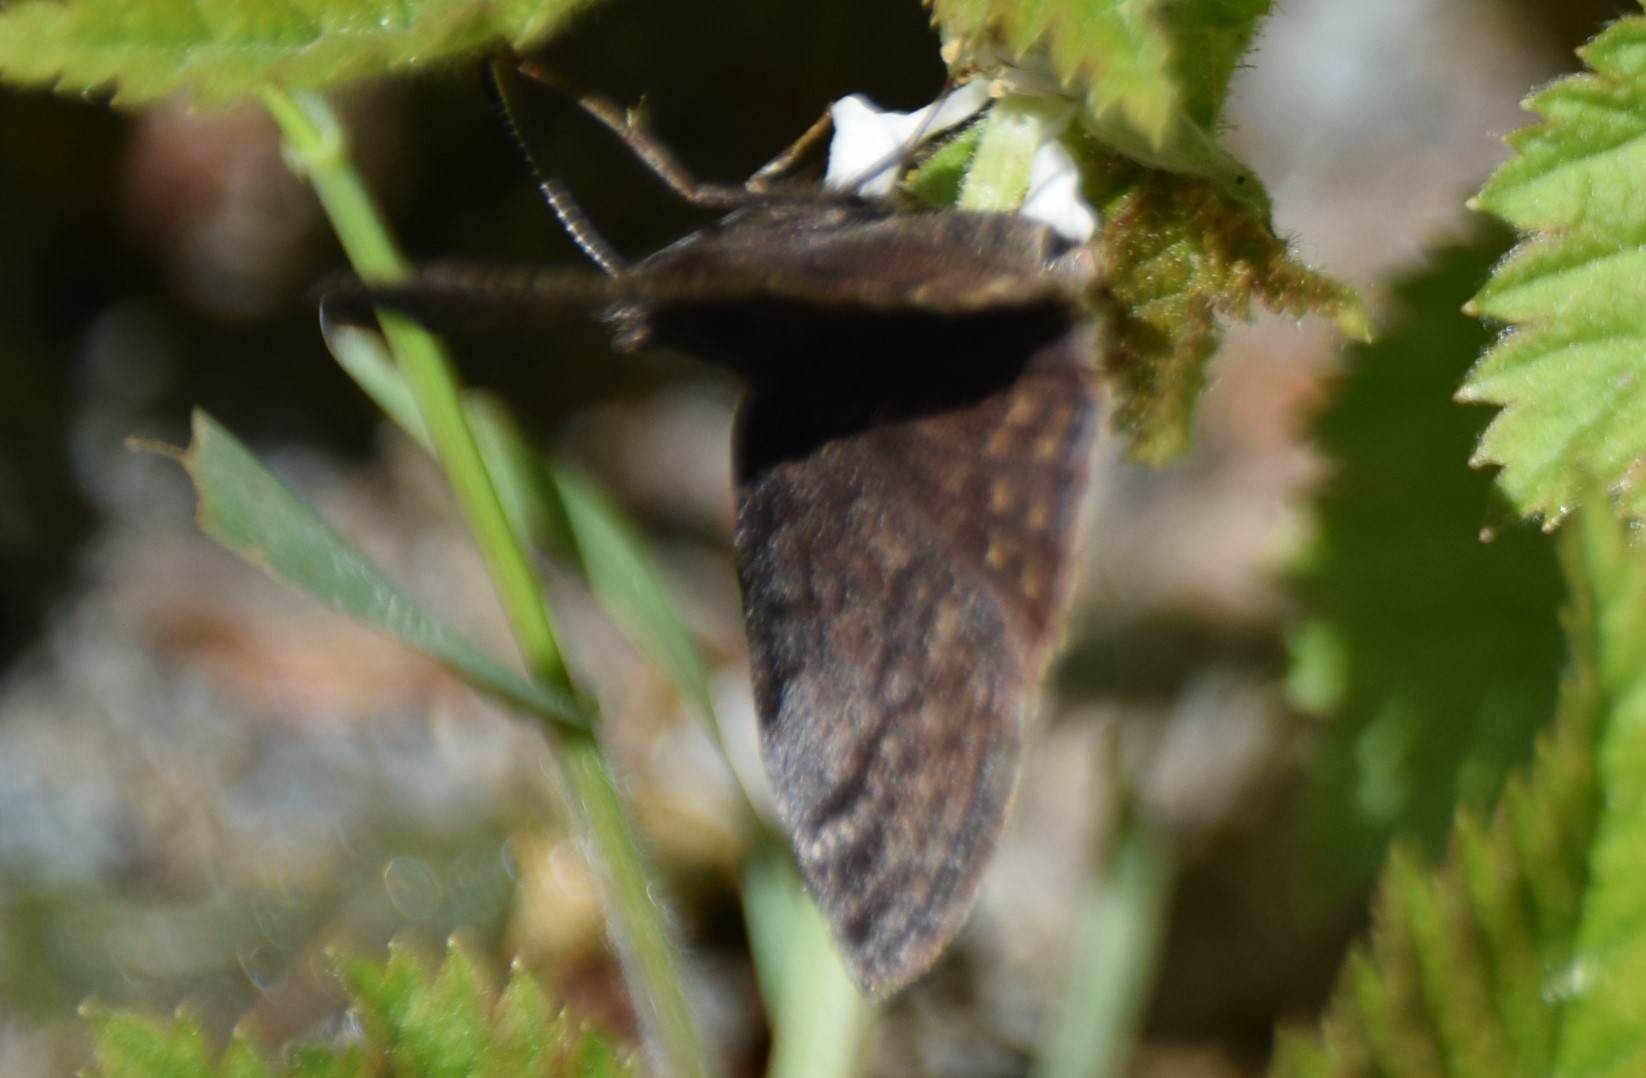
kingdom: Animalia
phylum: Arthropoda
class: Insecta
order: Lepidoptera
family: Hesperiidae
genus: Erynnis
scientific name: Erynnis icelus
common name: Dreamy duskywing
